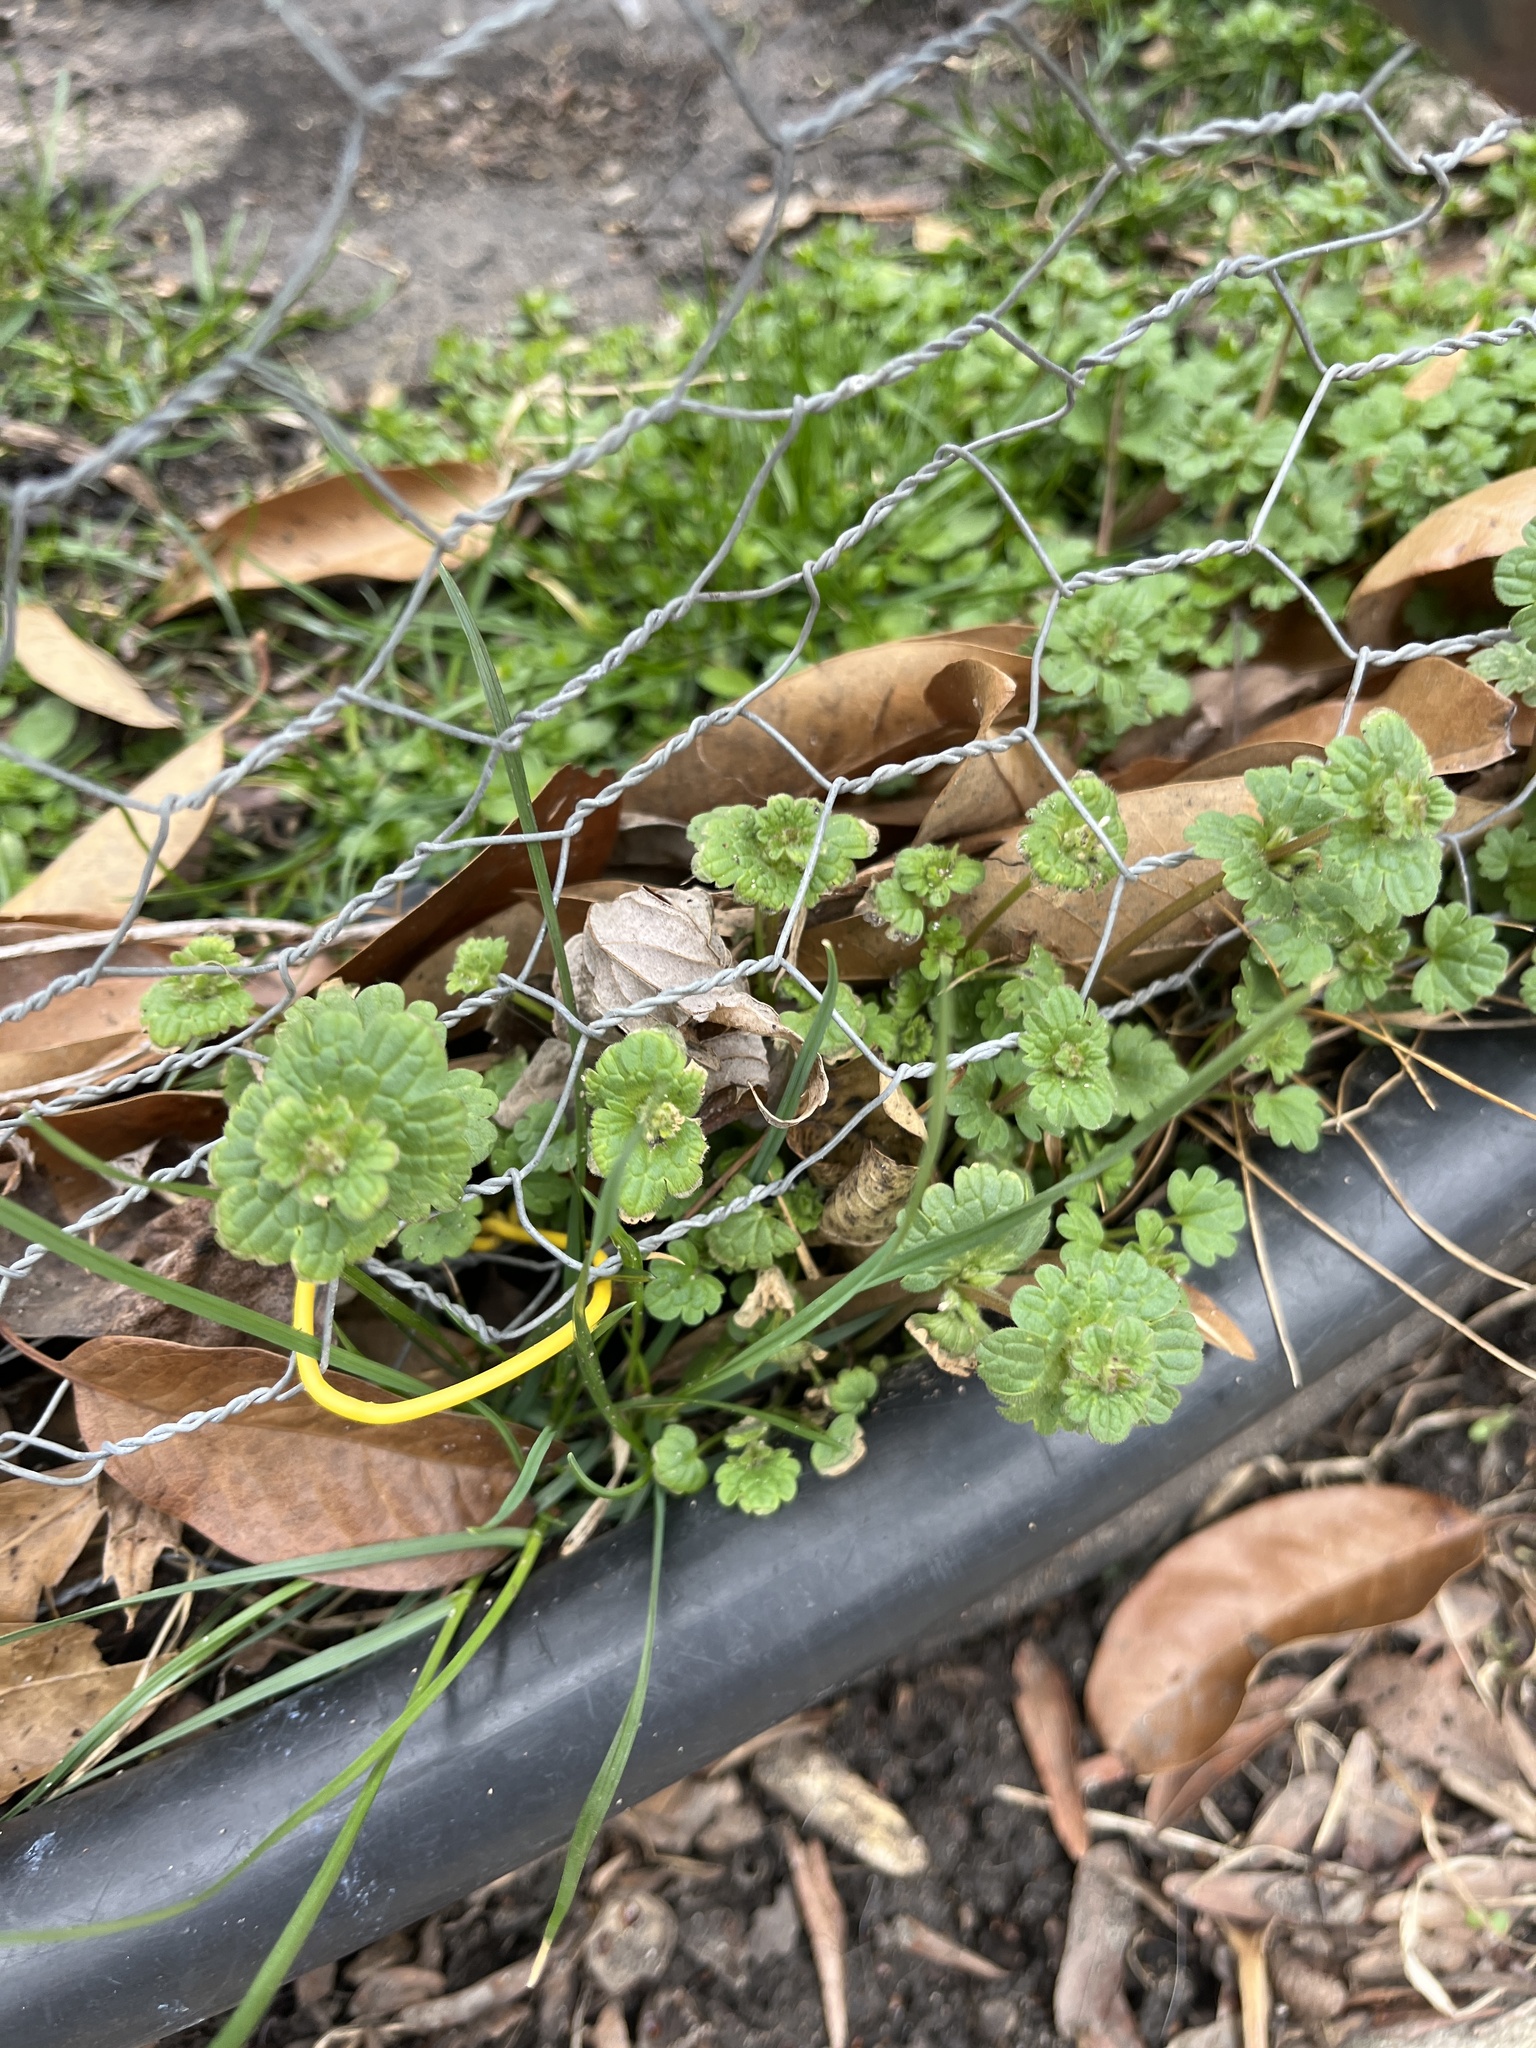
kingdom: Plantae
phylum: Tracheophyta
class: Magnoliopsida
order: Lamiales
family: Lamiaceae
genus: Lamium
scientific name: Lamium amplexicaule
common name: Henbit dead-nettle
